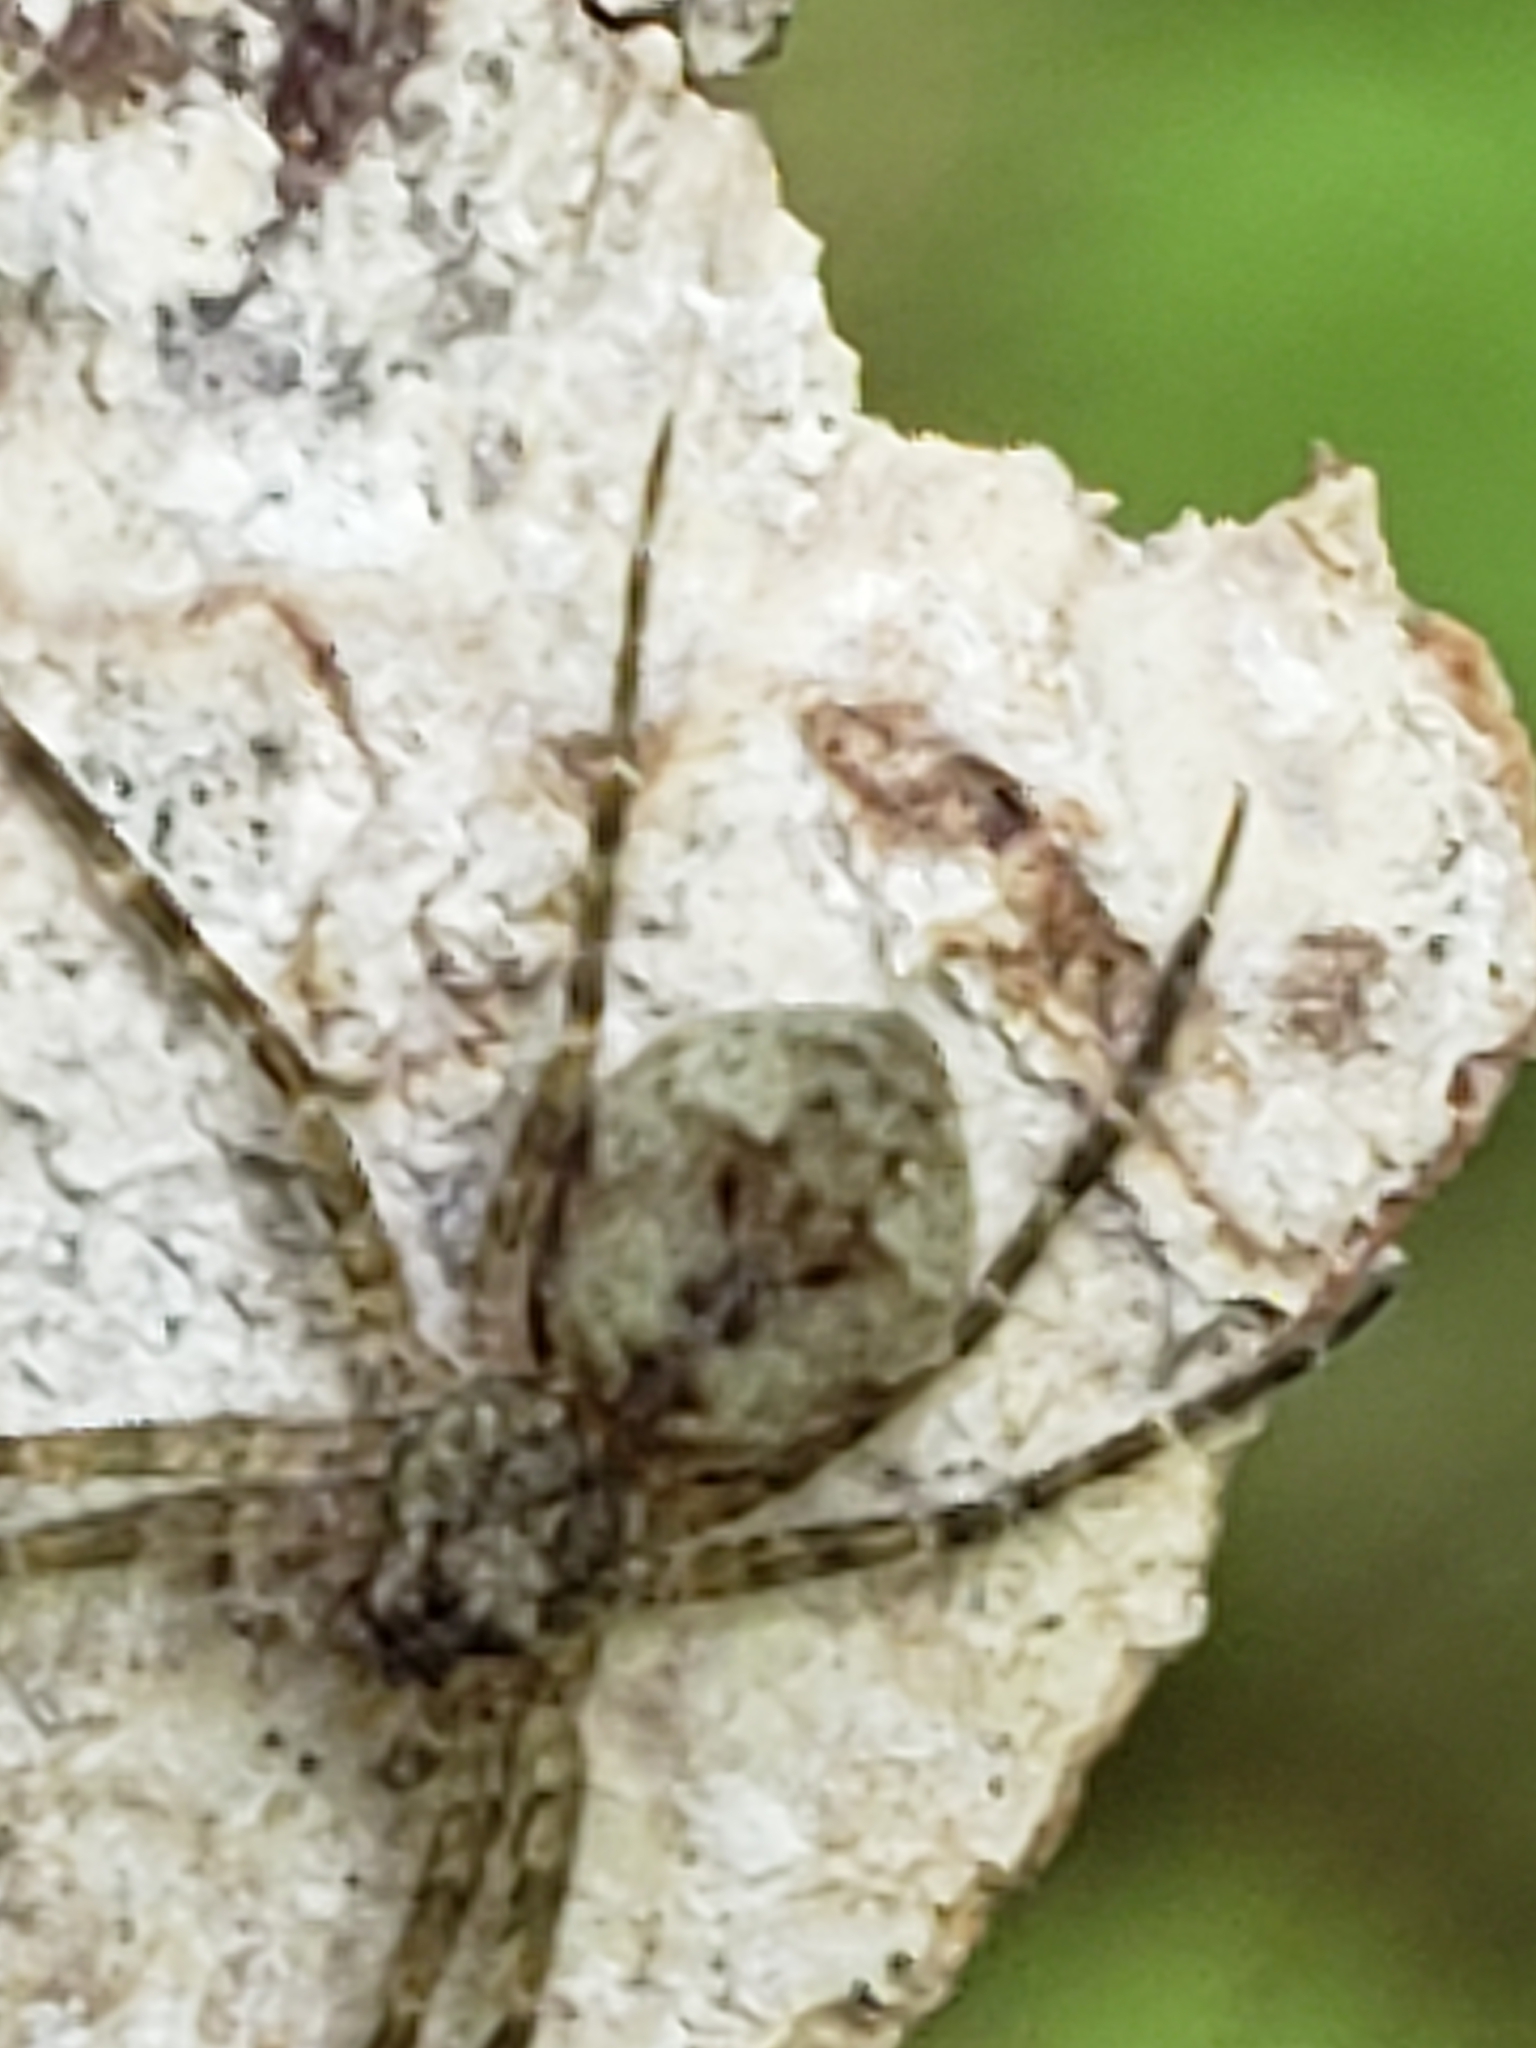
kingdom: Animalia
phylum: Arthropoda
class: Arachnida
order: Araneae
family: Pisauridae
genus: Dolomedes
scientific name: Dolomedes albineus
